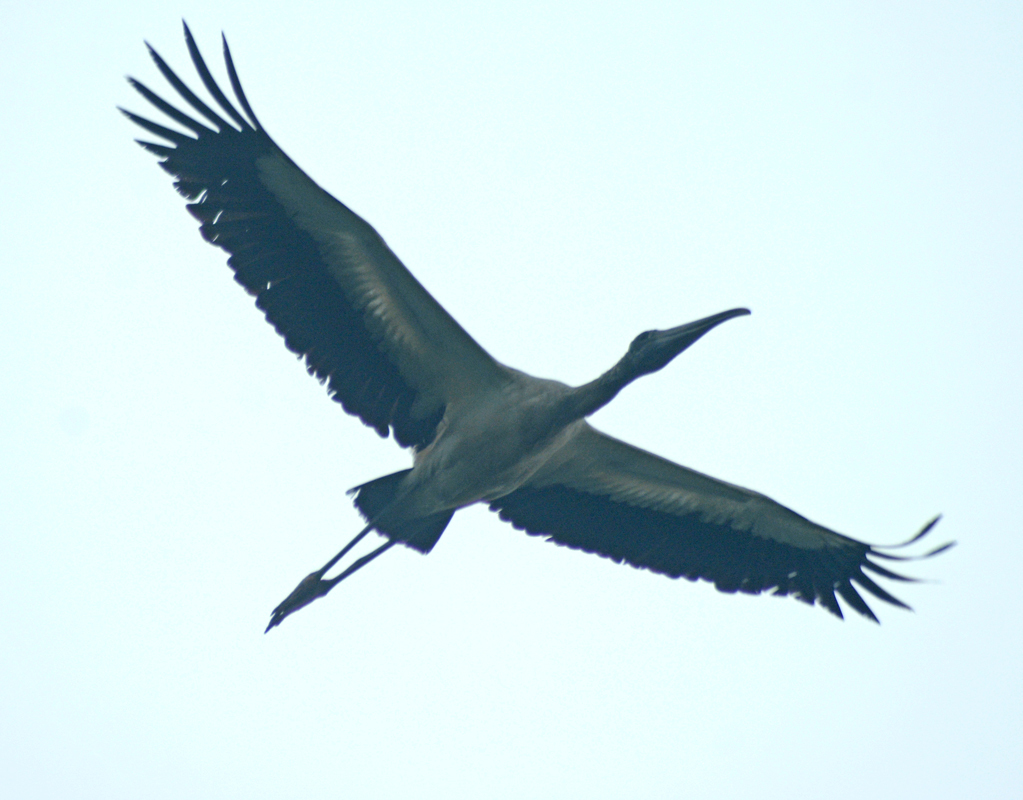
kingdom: Animalia
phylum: Chordata
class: Aves
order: Ciconiiformes
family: Ciconiidae
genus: Mycteria
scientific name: Mycteria americana
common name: Wood stork
